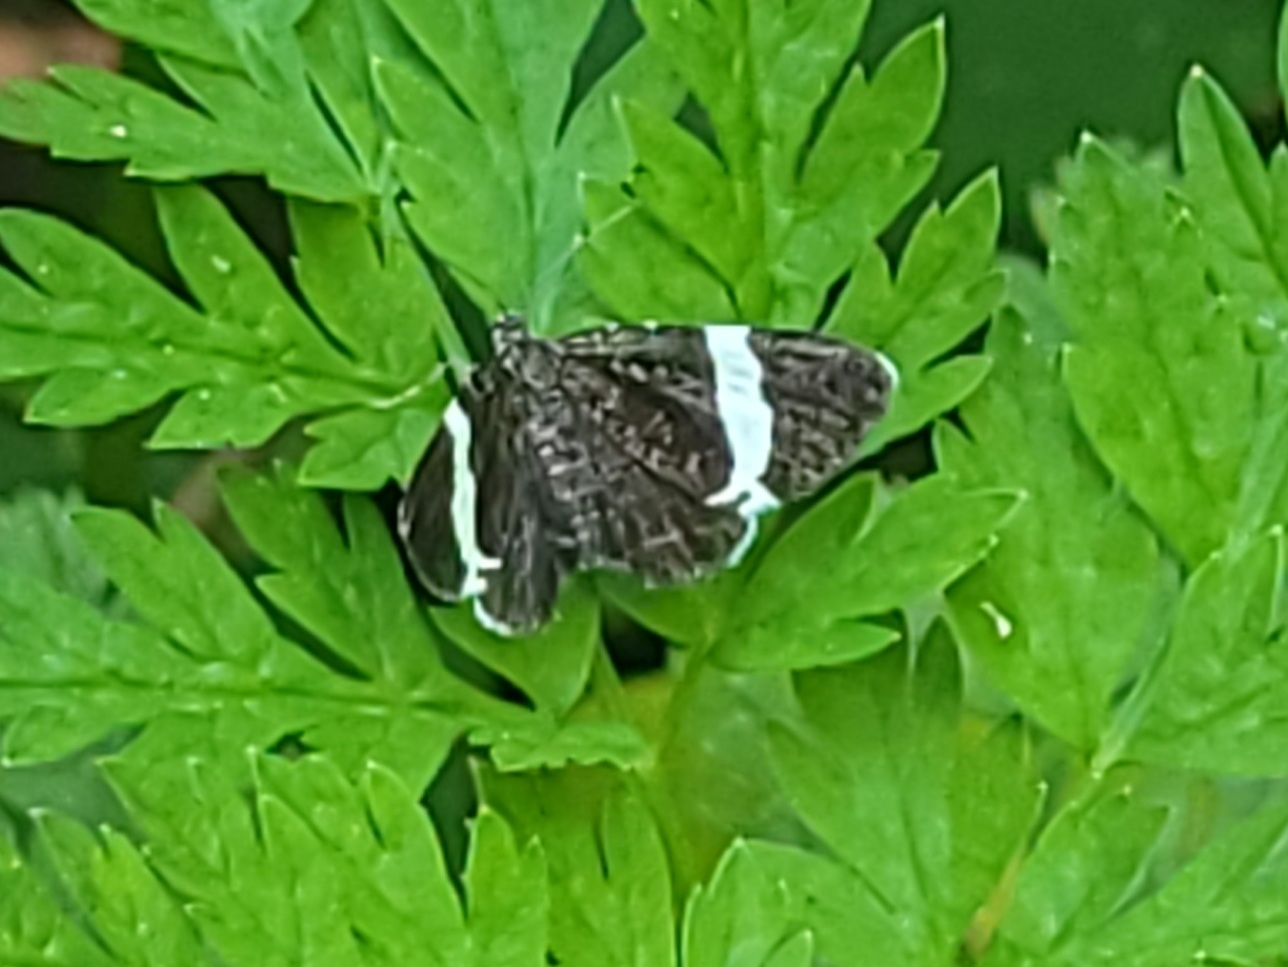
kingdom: Animalia
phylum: Arthropoda
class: Insecta
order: Lepidoptera
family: Geometridae
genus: Trichodezia
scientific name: Trichodezia albovittata
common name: White striped black
